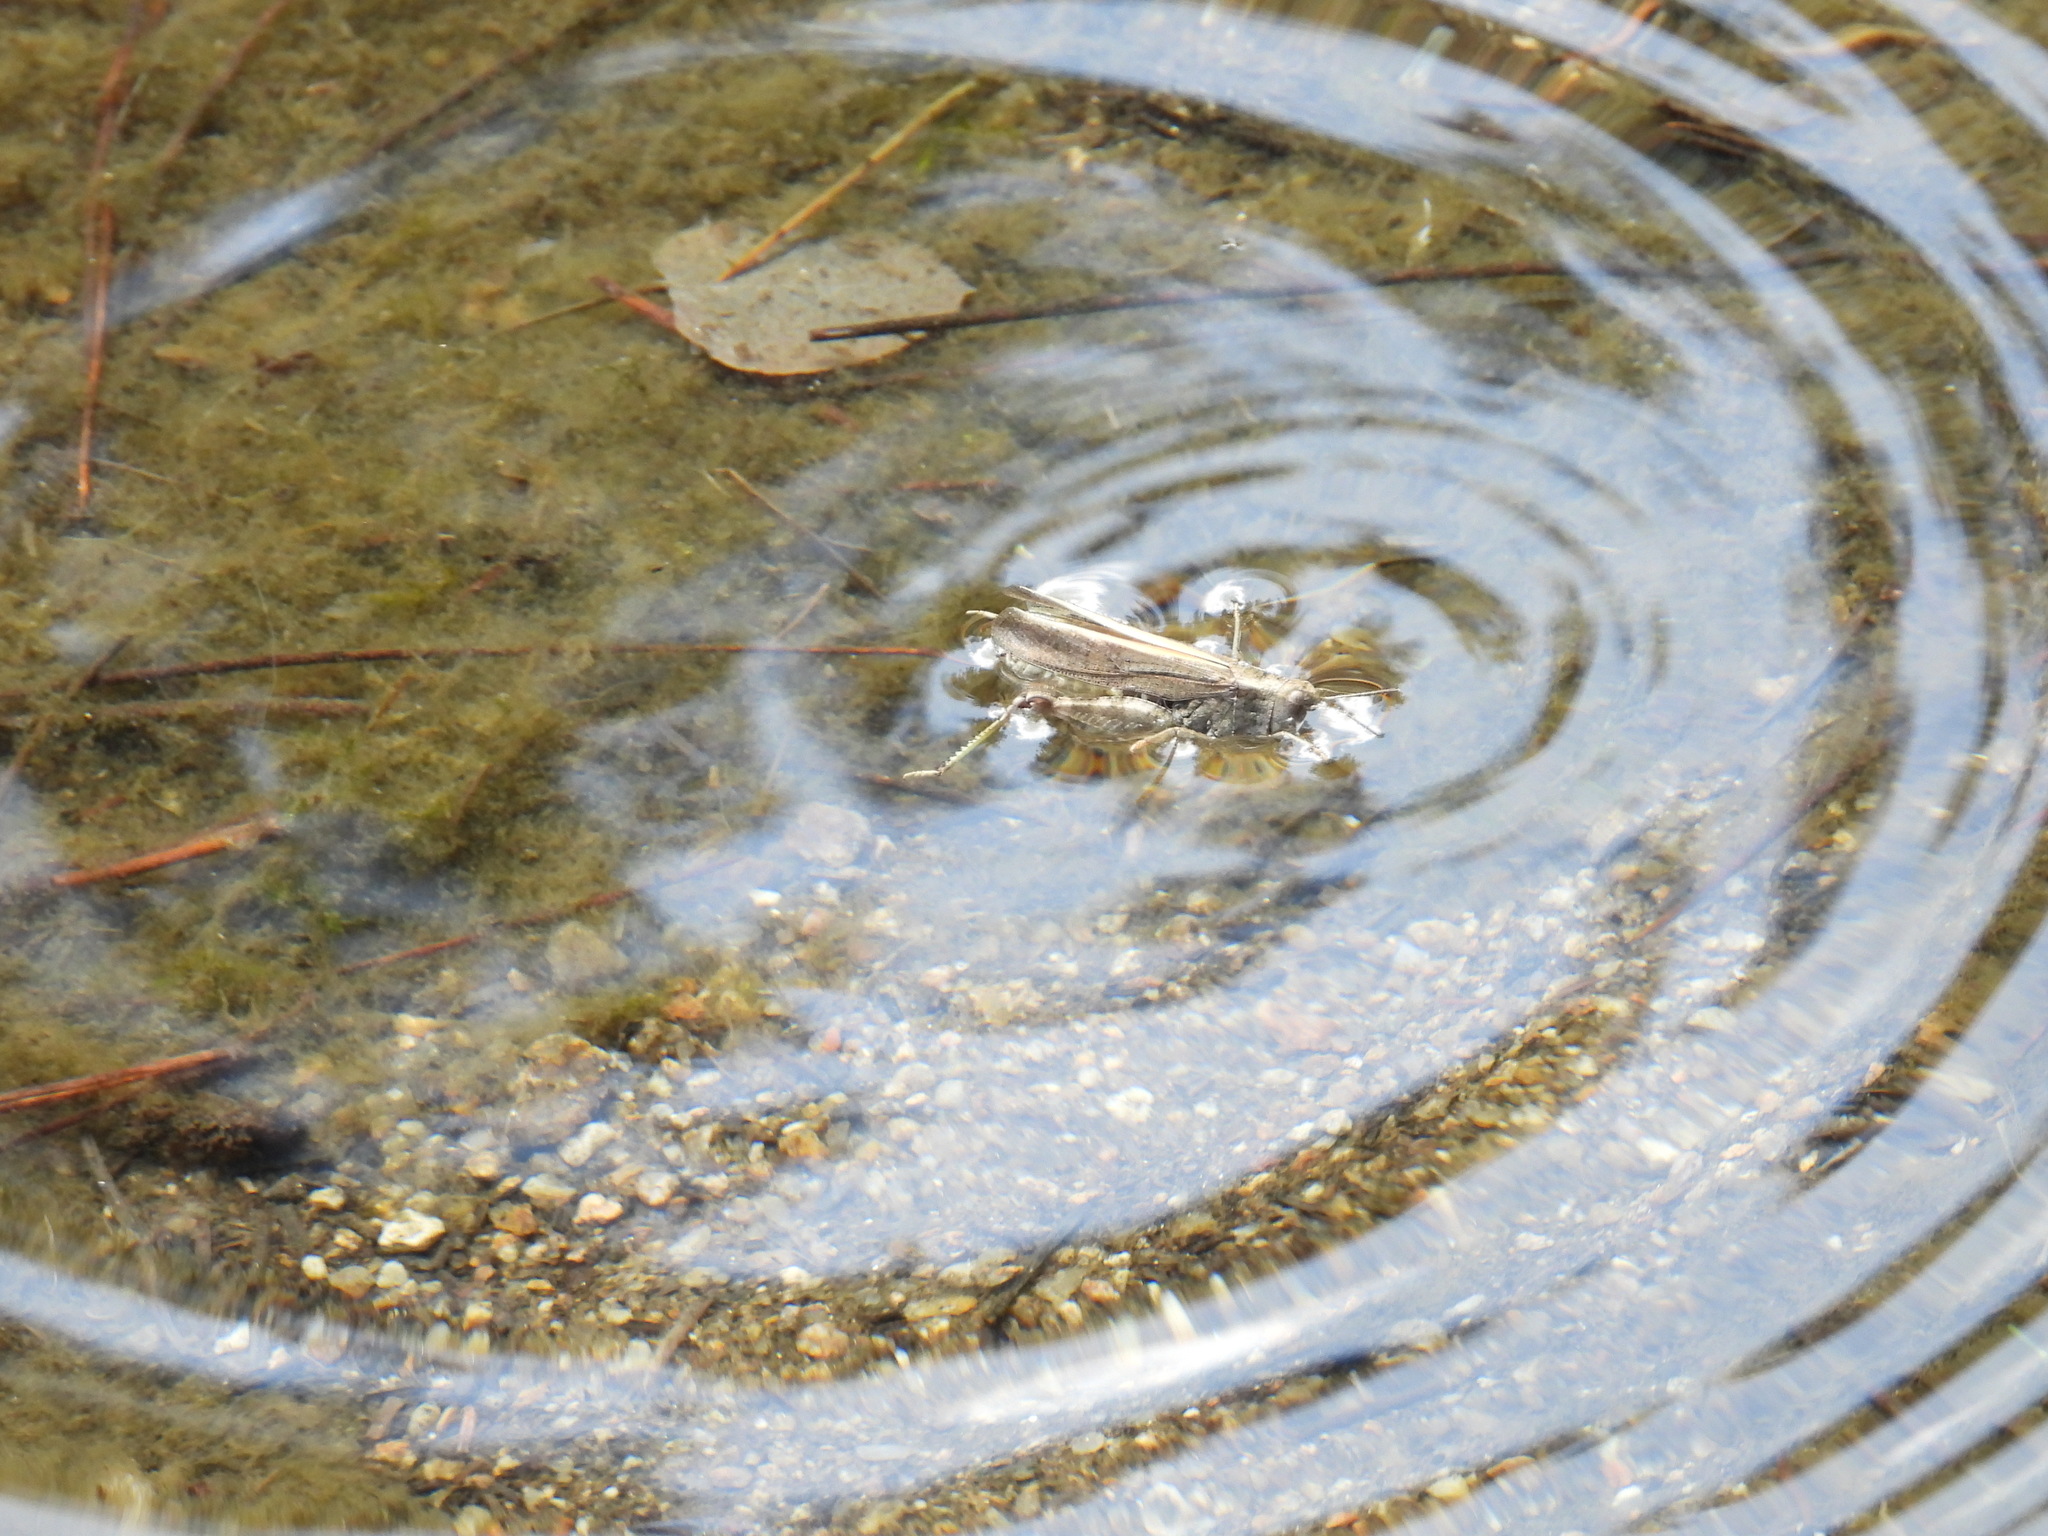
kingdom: Animalia
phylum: Arthropoda
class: Insecta
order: Orthoptera
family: Acrididae
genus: Arphia
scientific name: Arphia conspersa
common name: Speckle-winged rangeland grasshopper
